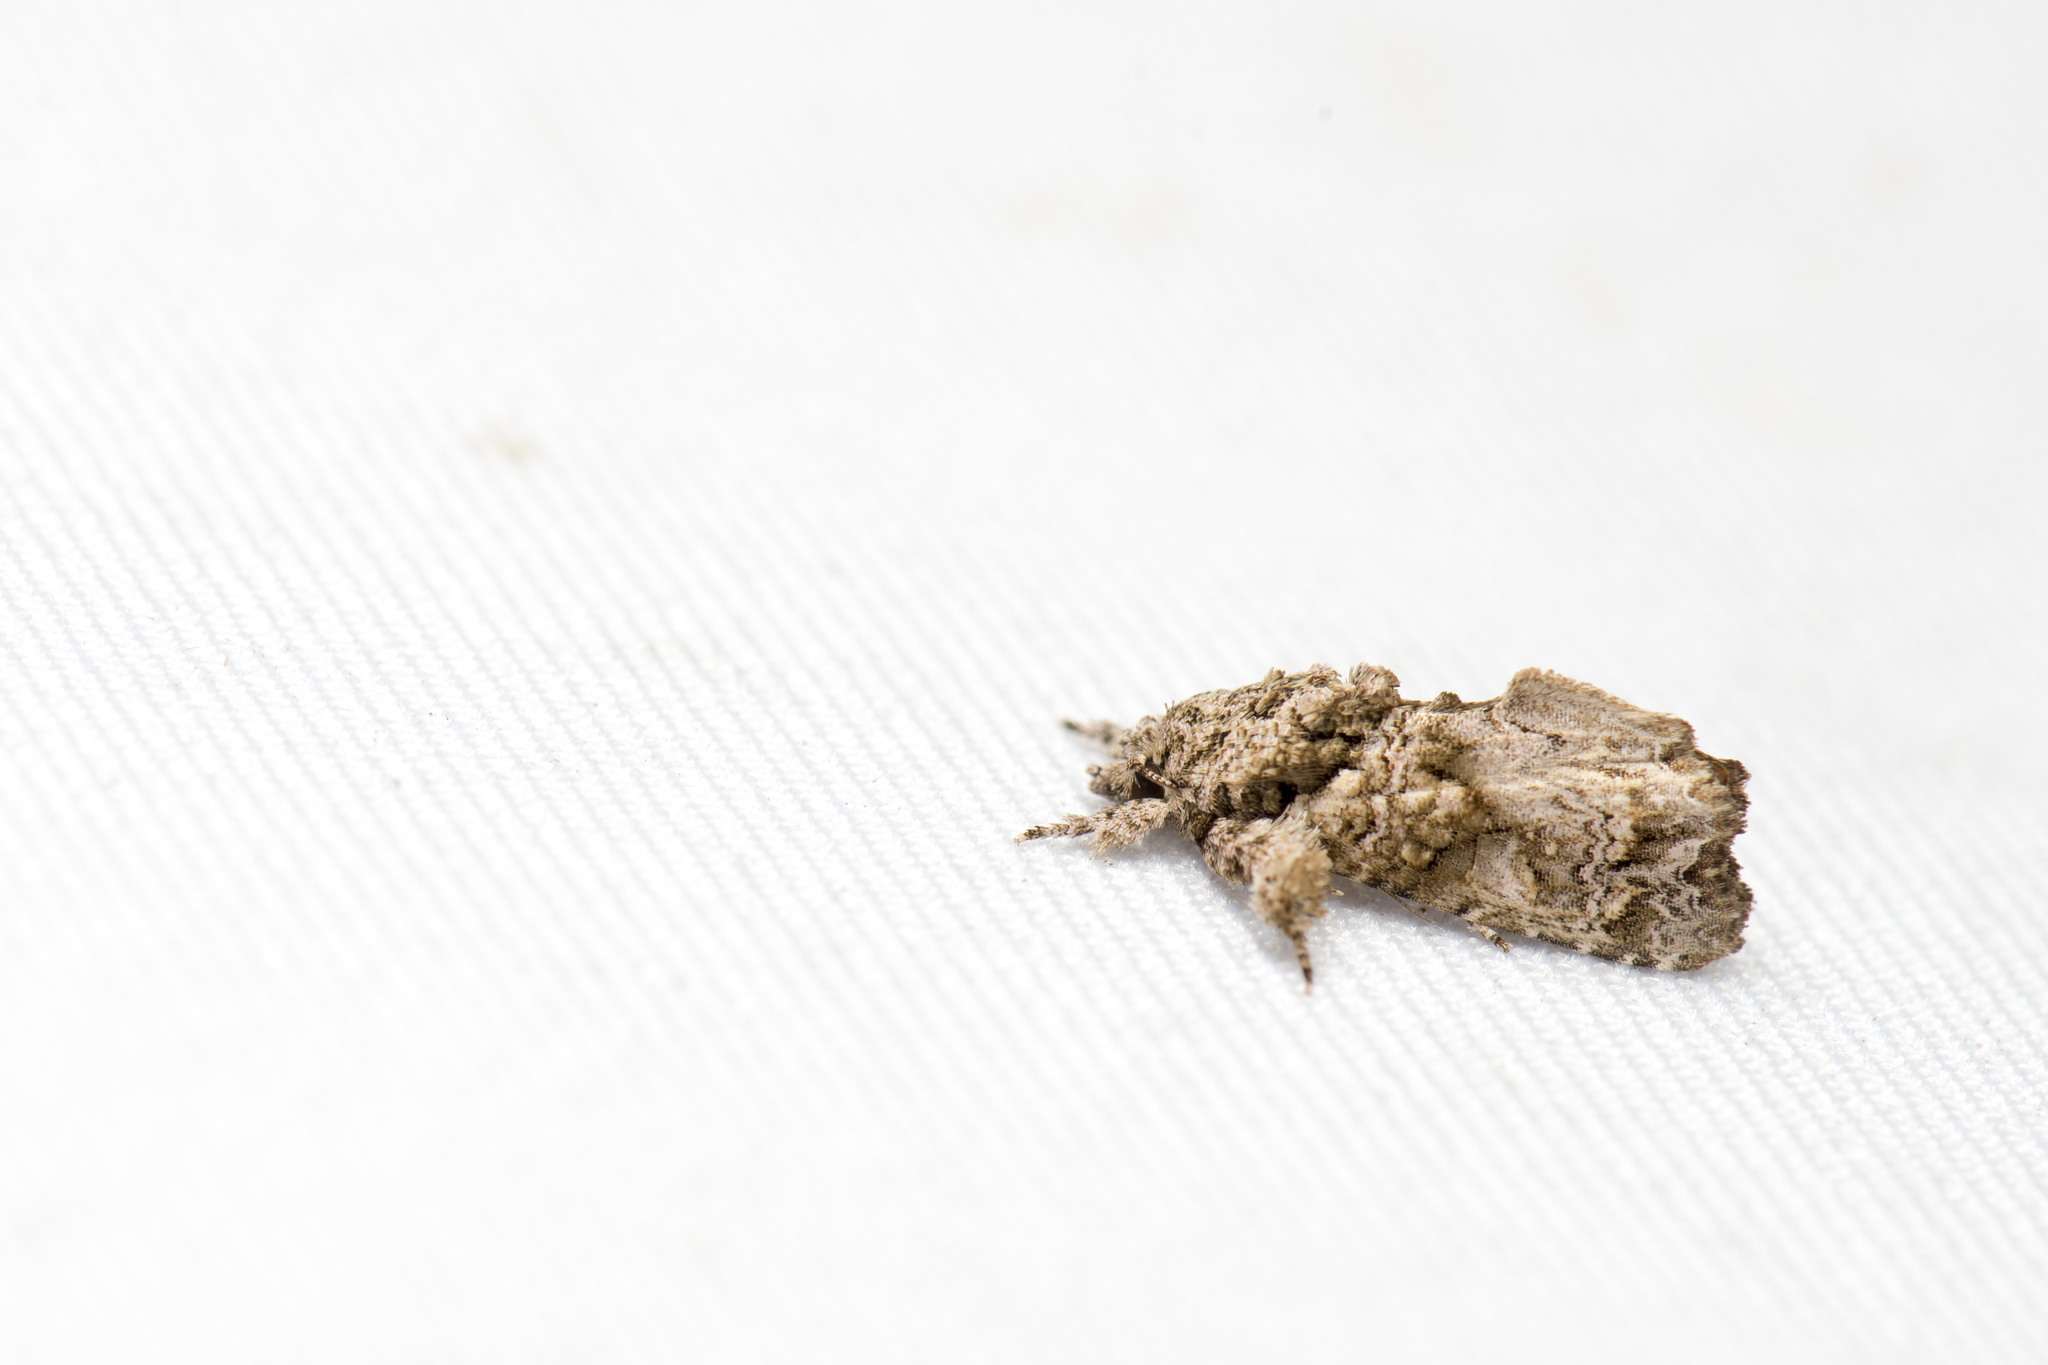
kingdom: Animalia
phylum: Arthropoda
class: Insecta
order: Lepidoptera
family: Noctuidae
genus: Callopistria
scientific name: Callopistria guttulalis
